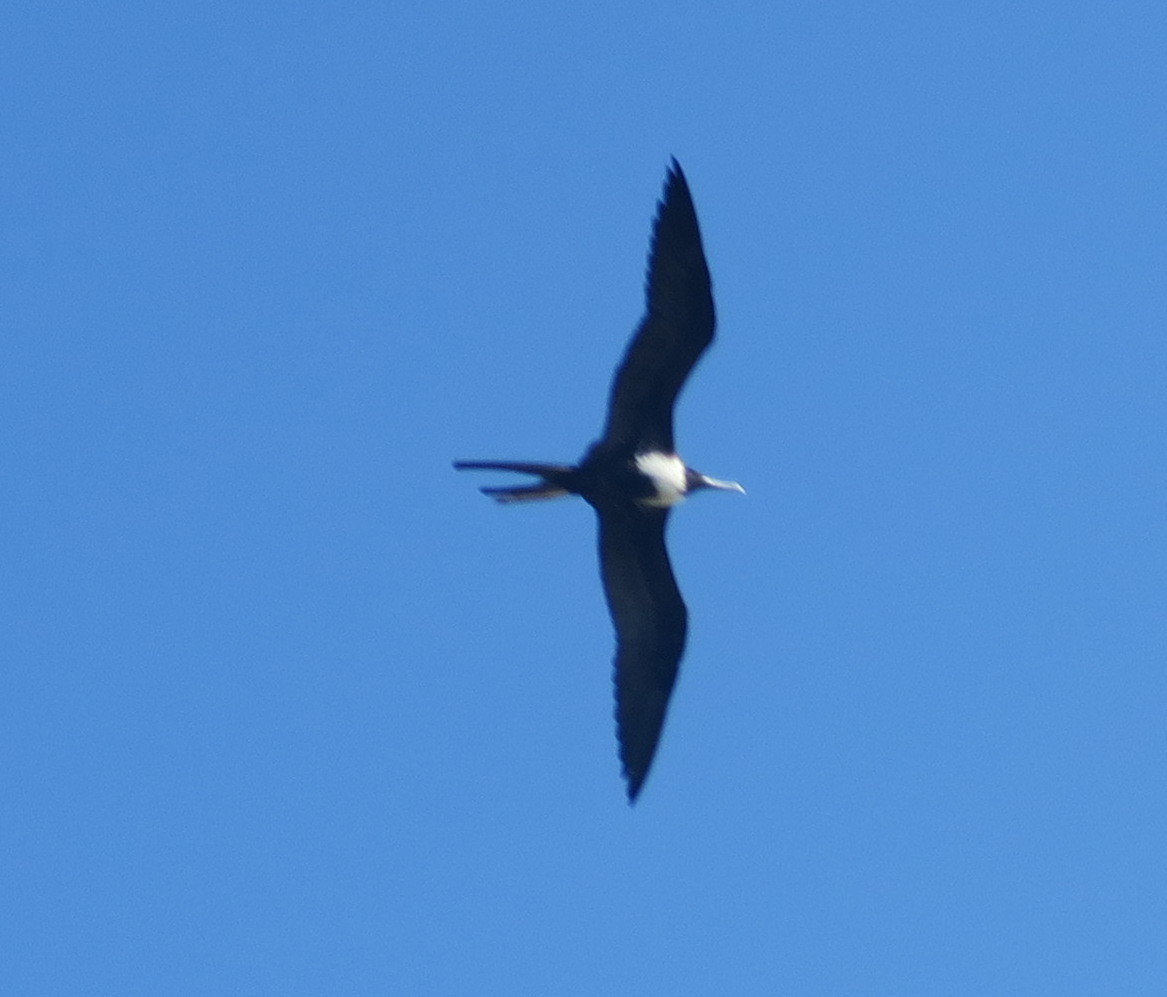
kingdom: Animalia
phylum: Chordata
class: Aves
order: Suliformes
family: Fregatidae
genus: Fregata
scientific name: Fregata magnificens
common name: Magnificent frigatebird
